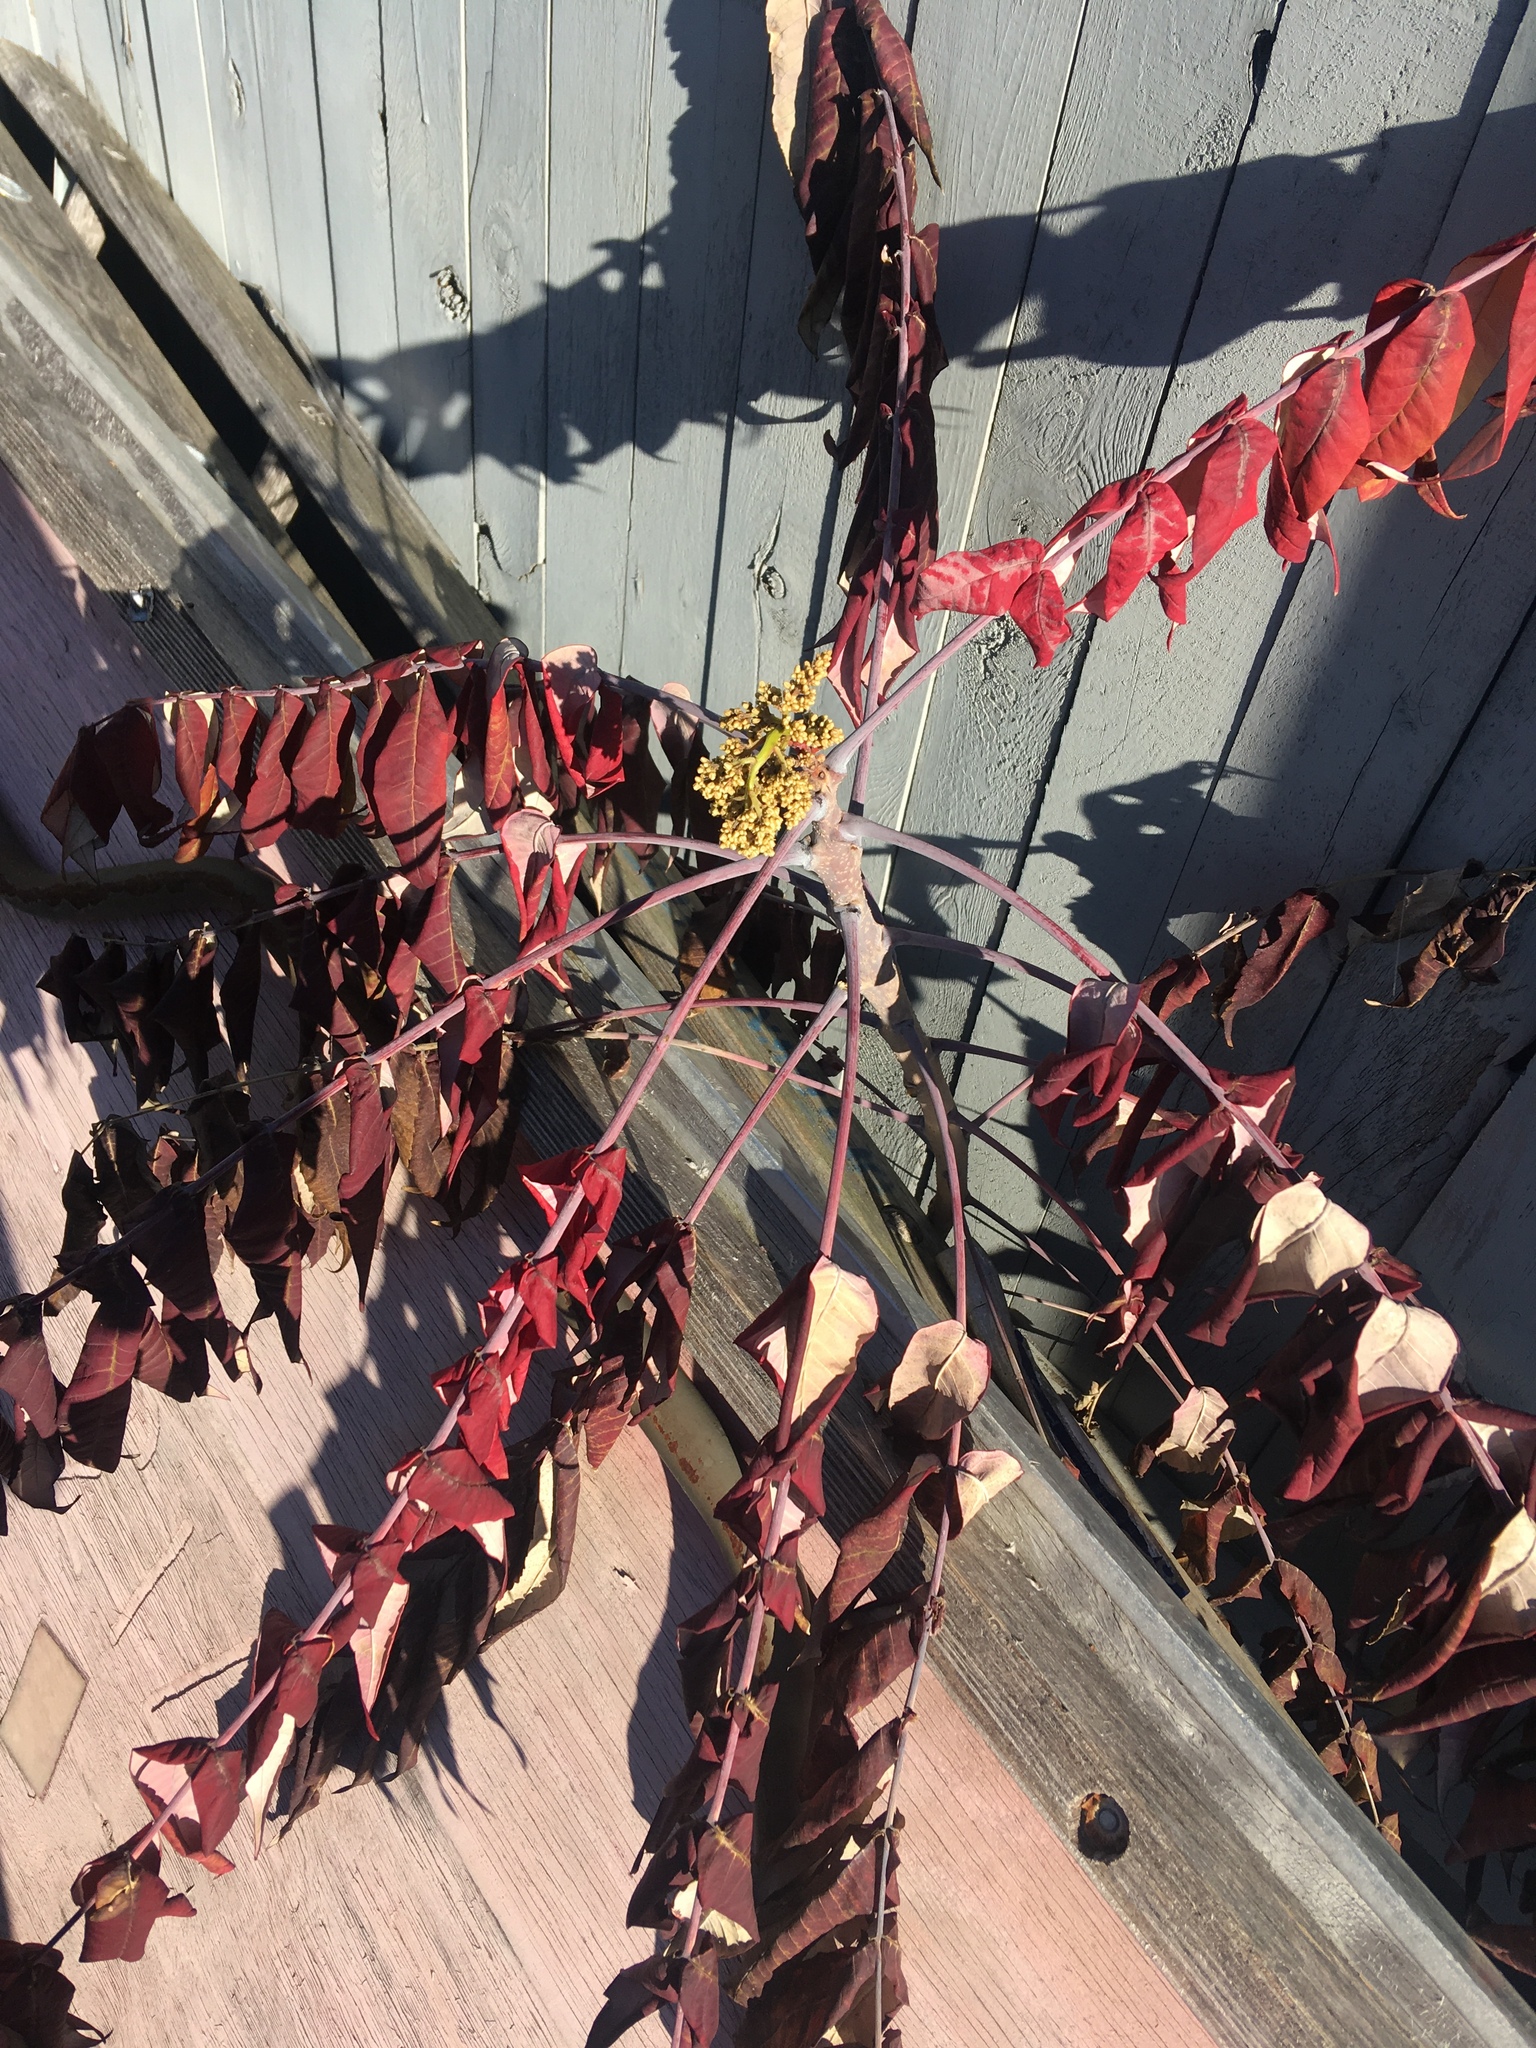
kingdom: Plantae
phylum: Tracheophyta
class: Magnoliopsida
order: Sapindales
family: Anacardiaceae
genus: Rhus
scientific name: Rhus glabra
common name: Scarlet sumac
